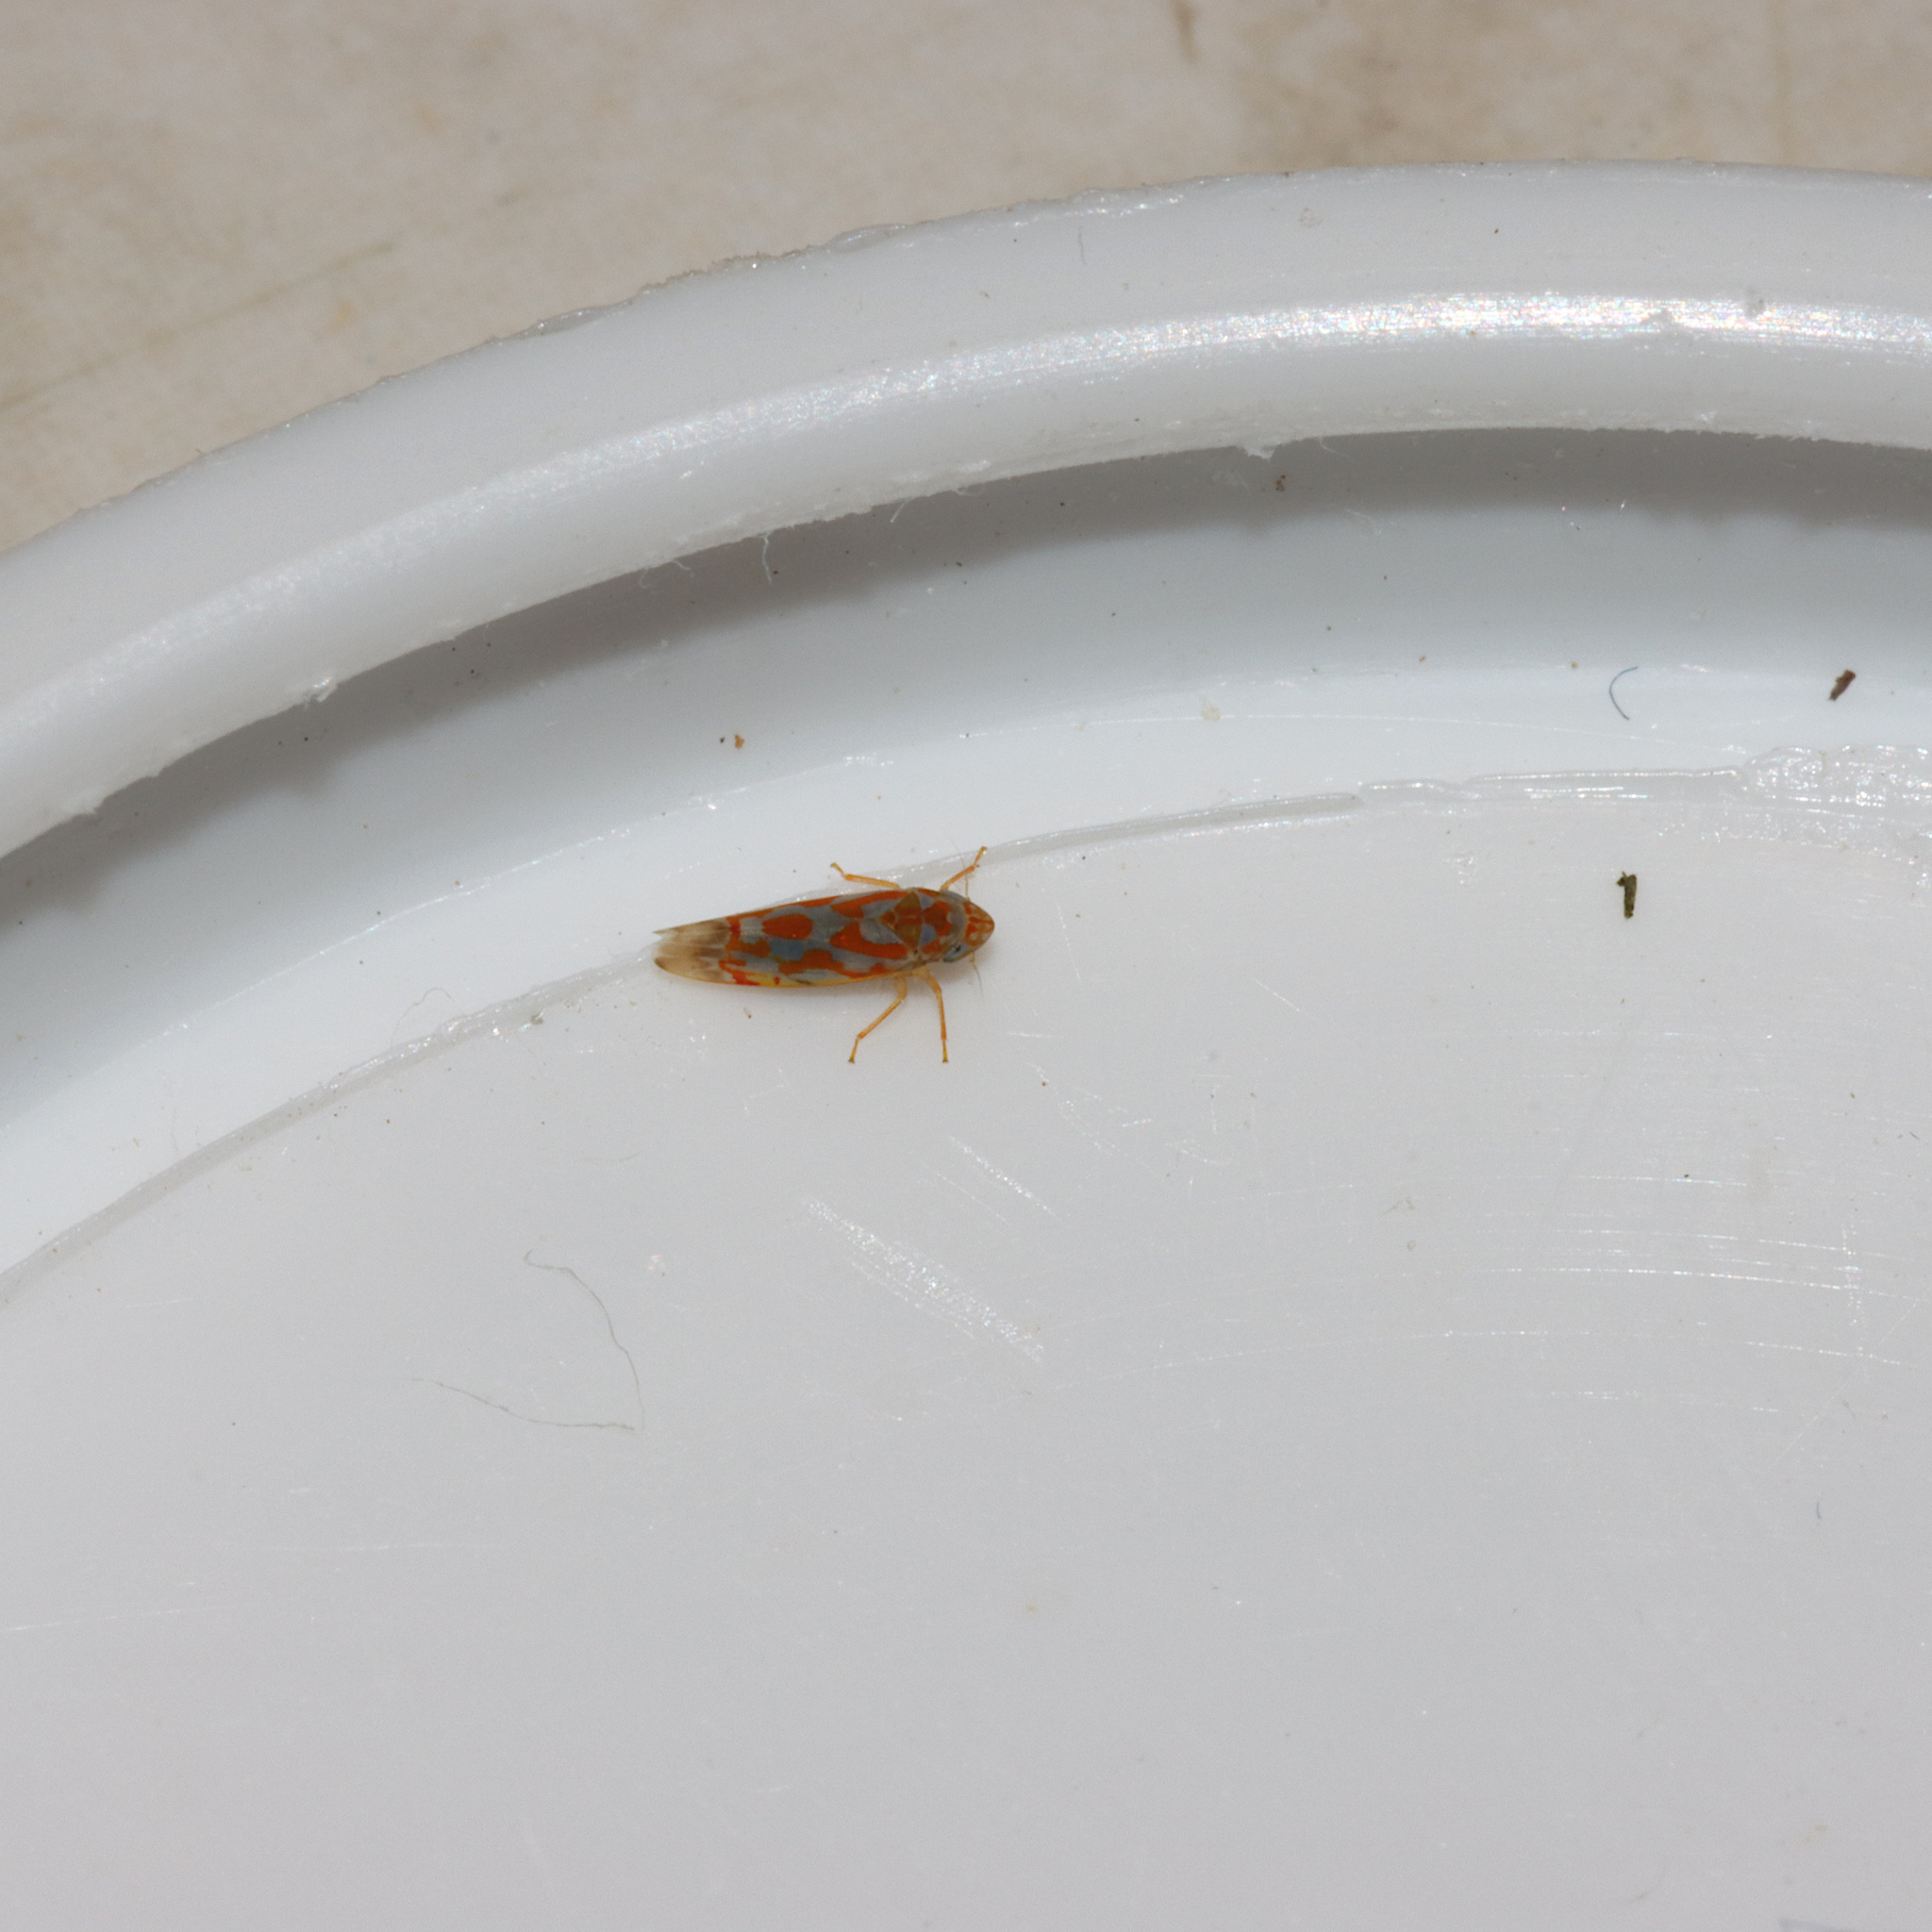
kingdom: Animalia
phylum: Arthropoda
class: Insecta
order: Hemiptera
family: Cicadellidae
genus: Erythroneura
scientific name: Erythroneura rubrella
